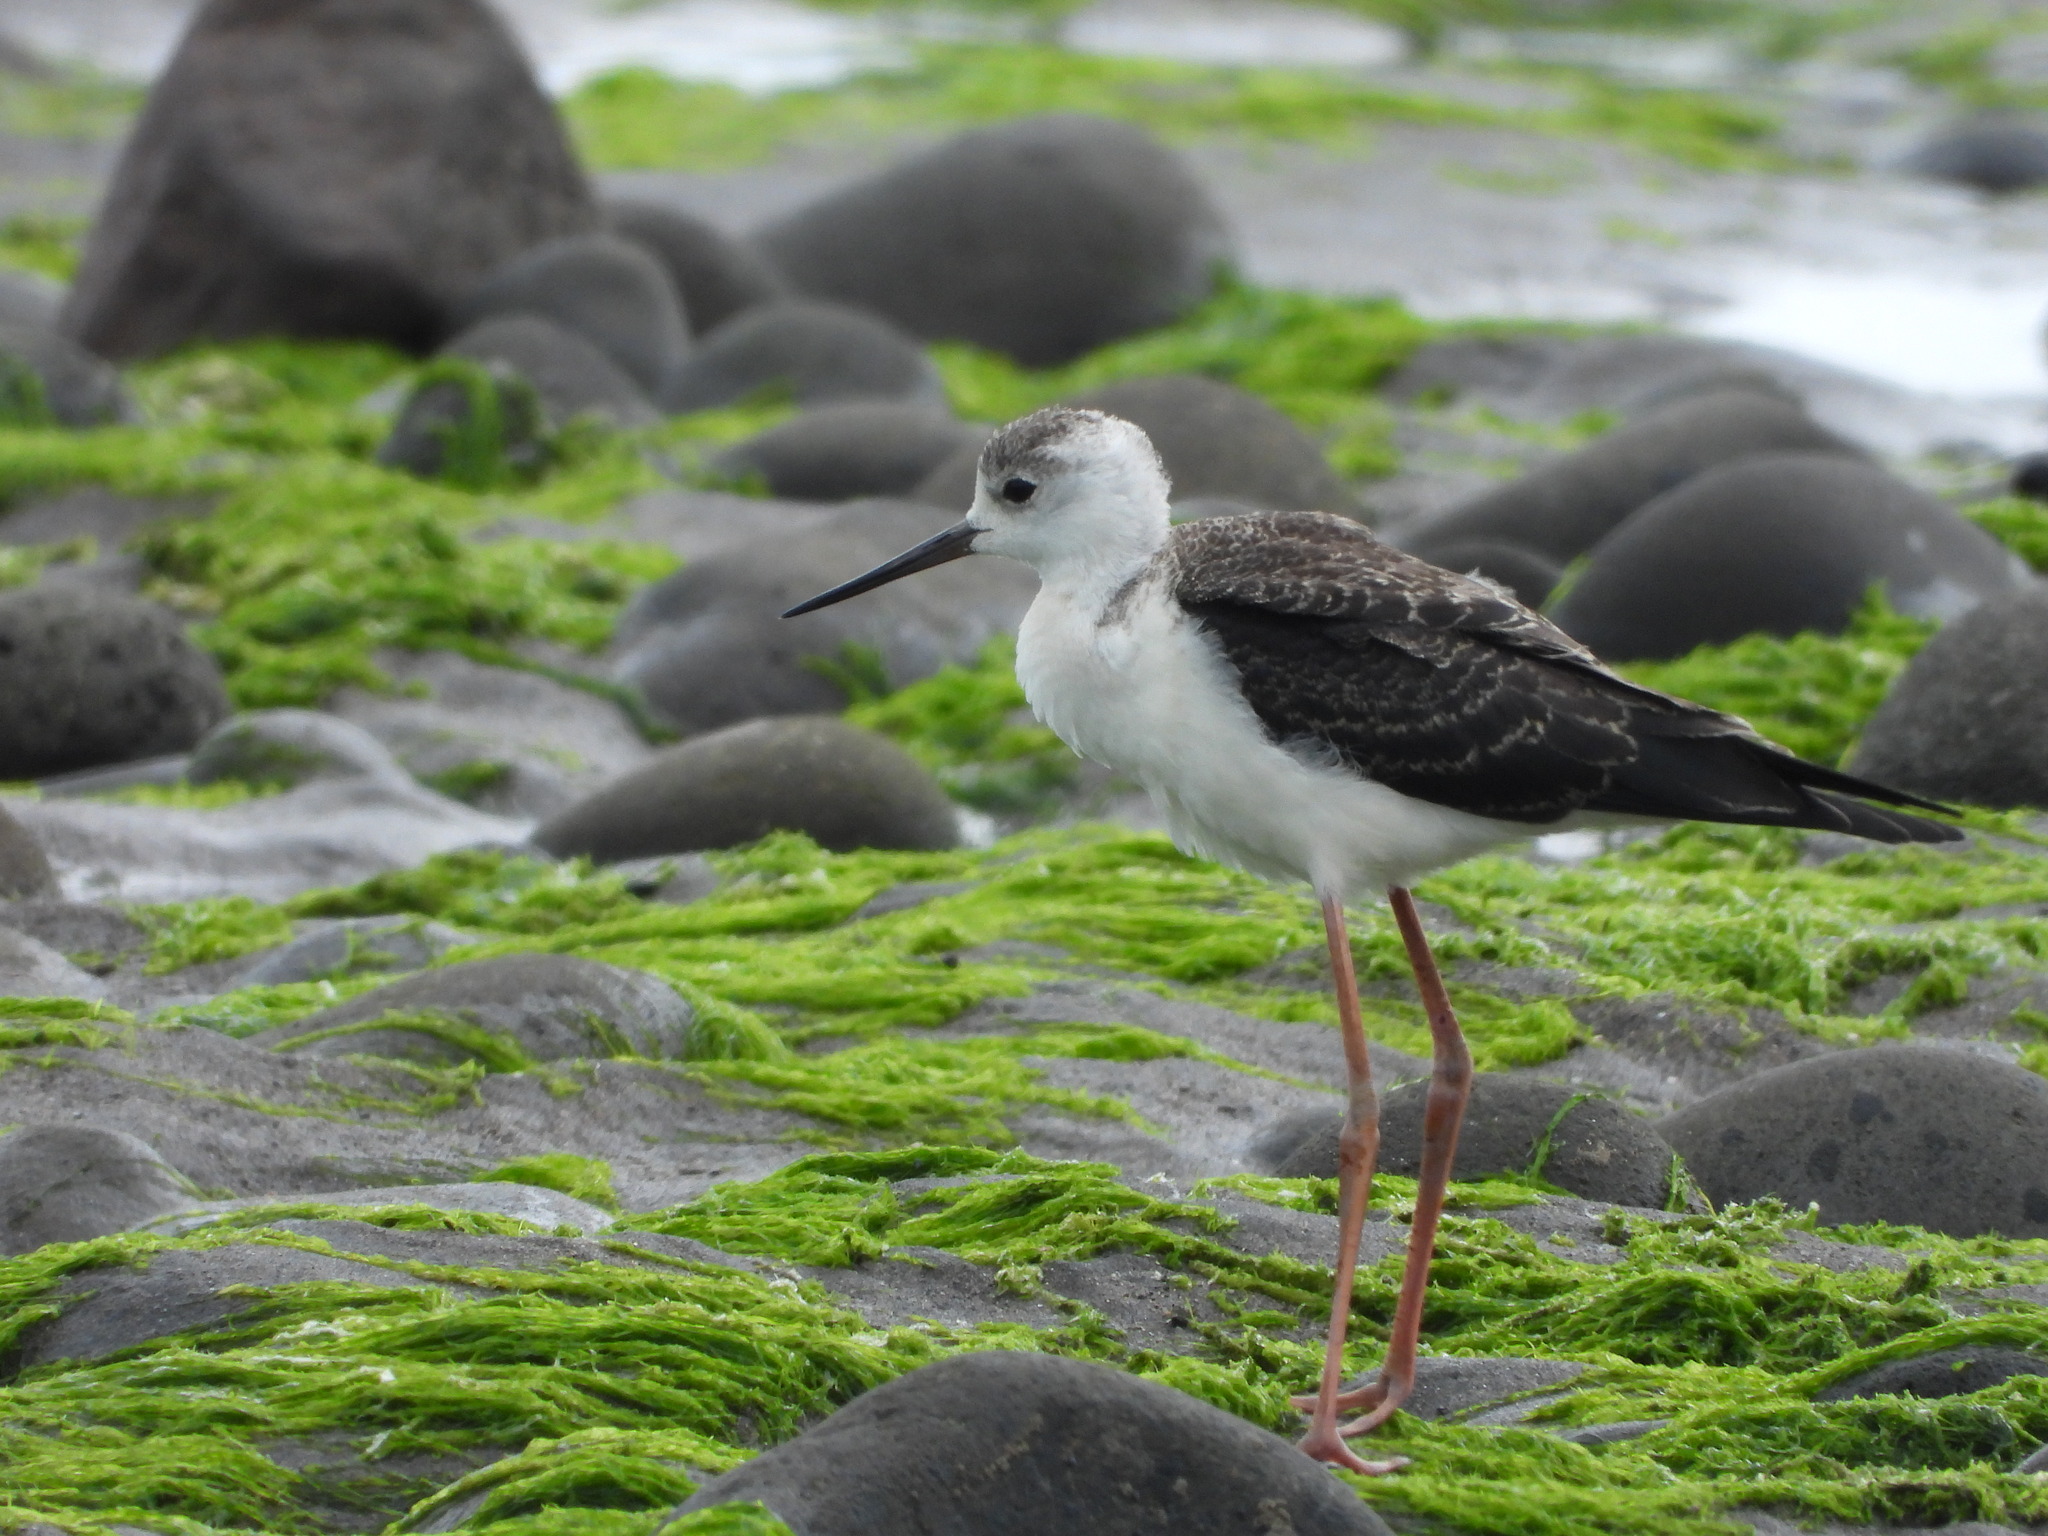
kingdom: Animalia
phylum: Chordata
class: Aves
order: Charadriiformes
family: Recurvirostridae
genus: Himantopus
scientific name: Himantopus leucocephalus
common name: White-headed stilt
